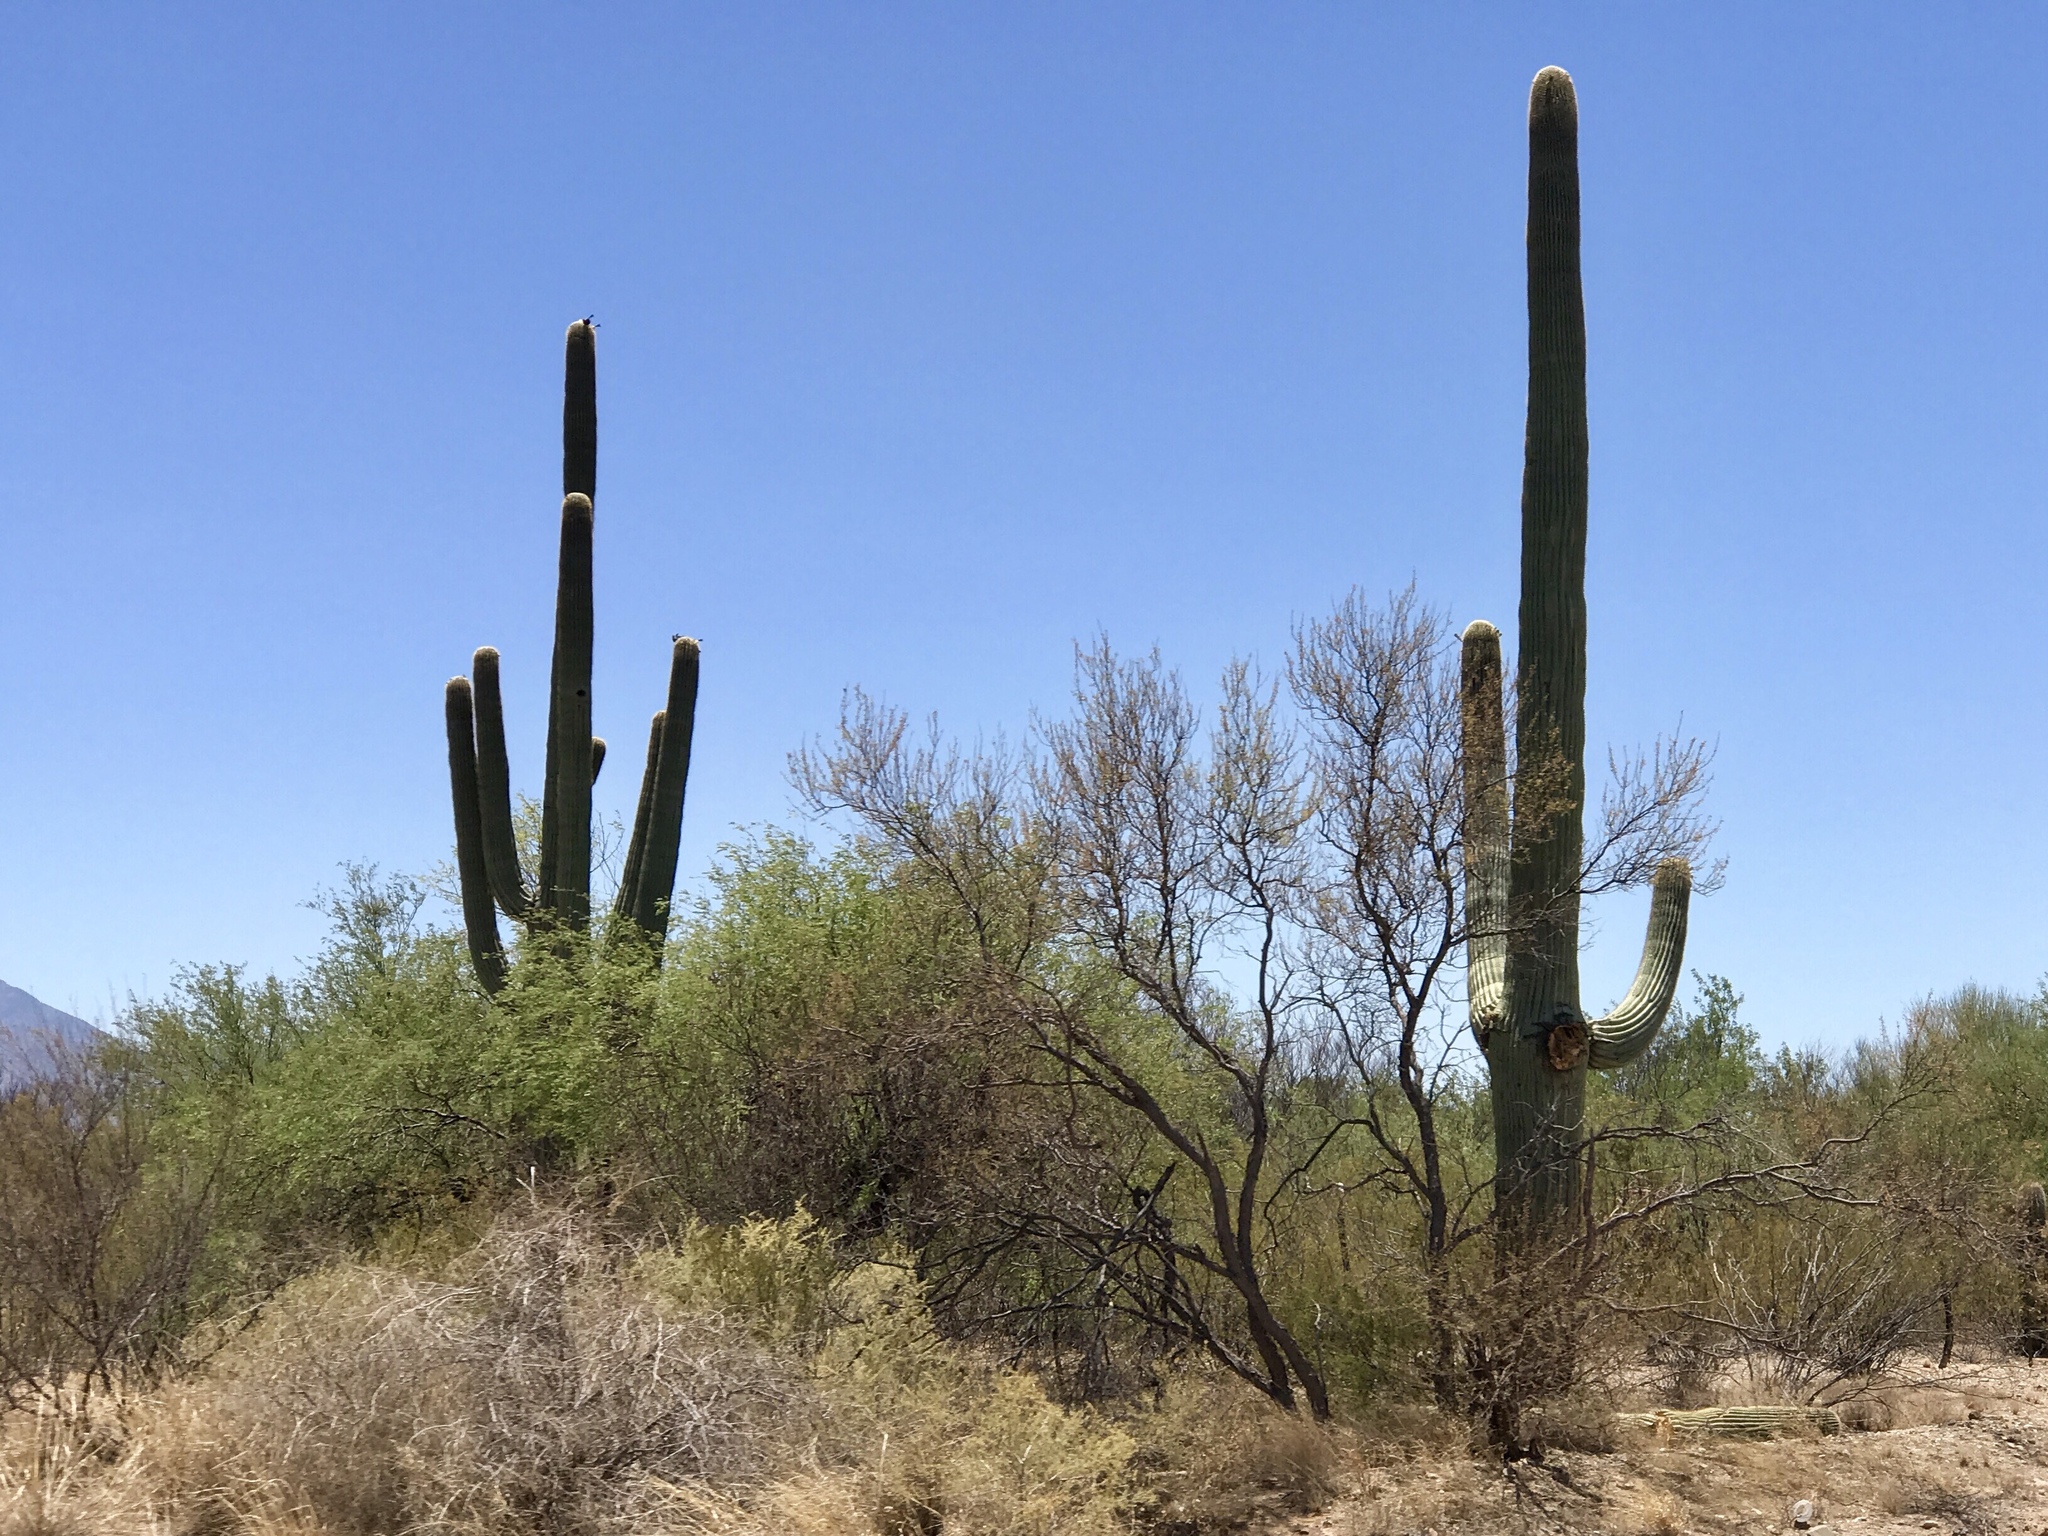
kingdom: Plantae
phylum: Tracheophyta
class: Magnoliopsida
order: Caryophyllales
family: Cactaceae
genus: Carnegiea
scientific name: Carnegiea gigantea
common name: Saguaro
